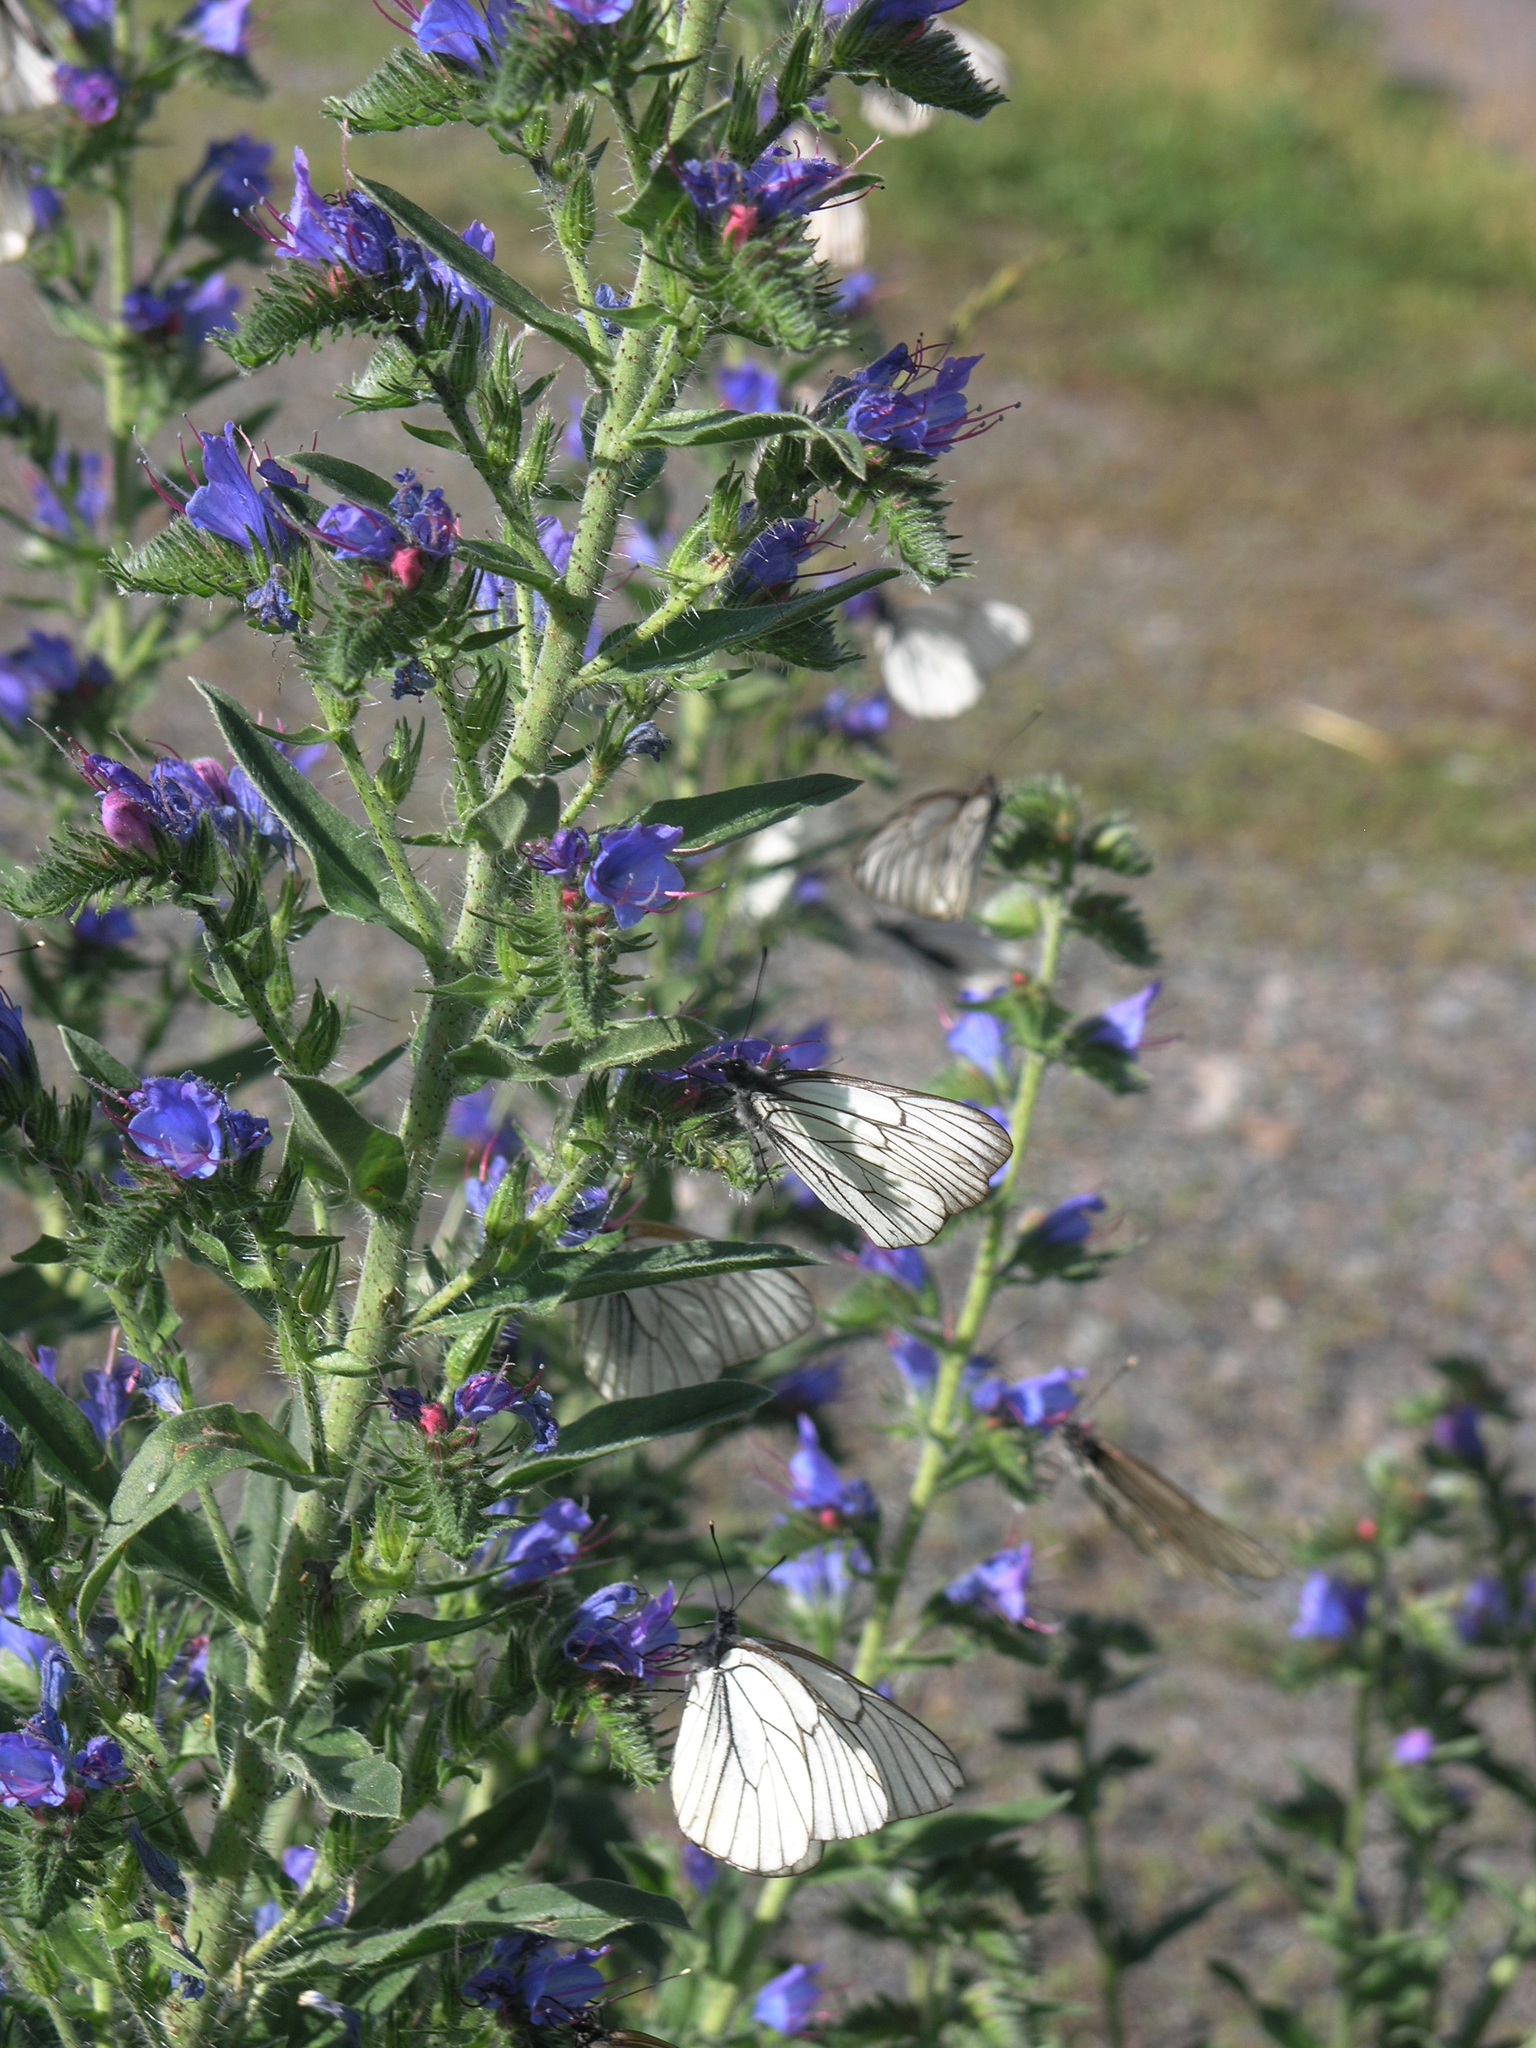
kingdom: Animalia
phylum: Arthropoda
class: Insecta
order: Lepidoptera
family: Pieridae
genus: Aporia
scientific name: Aporia crataegi
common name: Black-veined white
